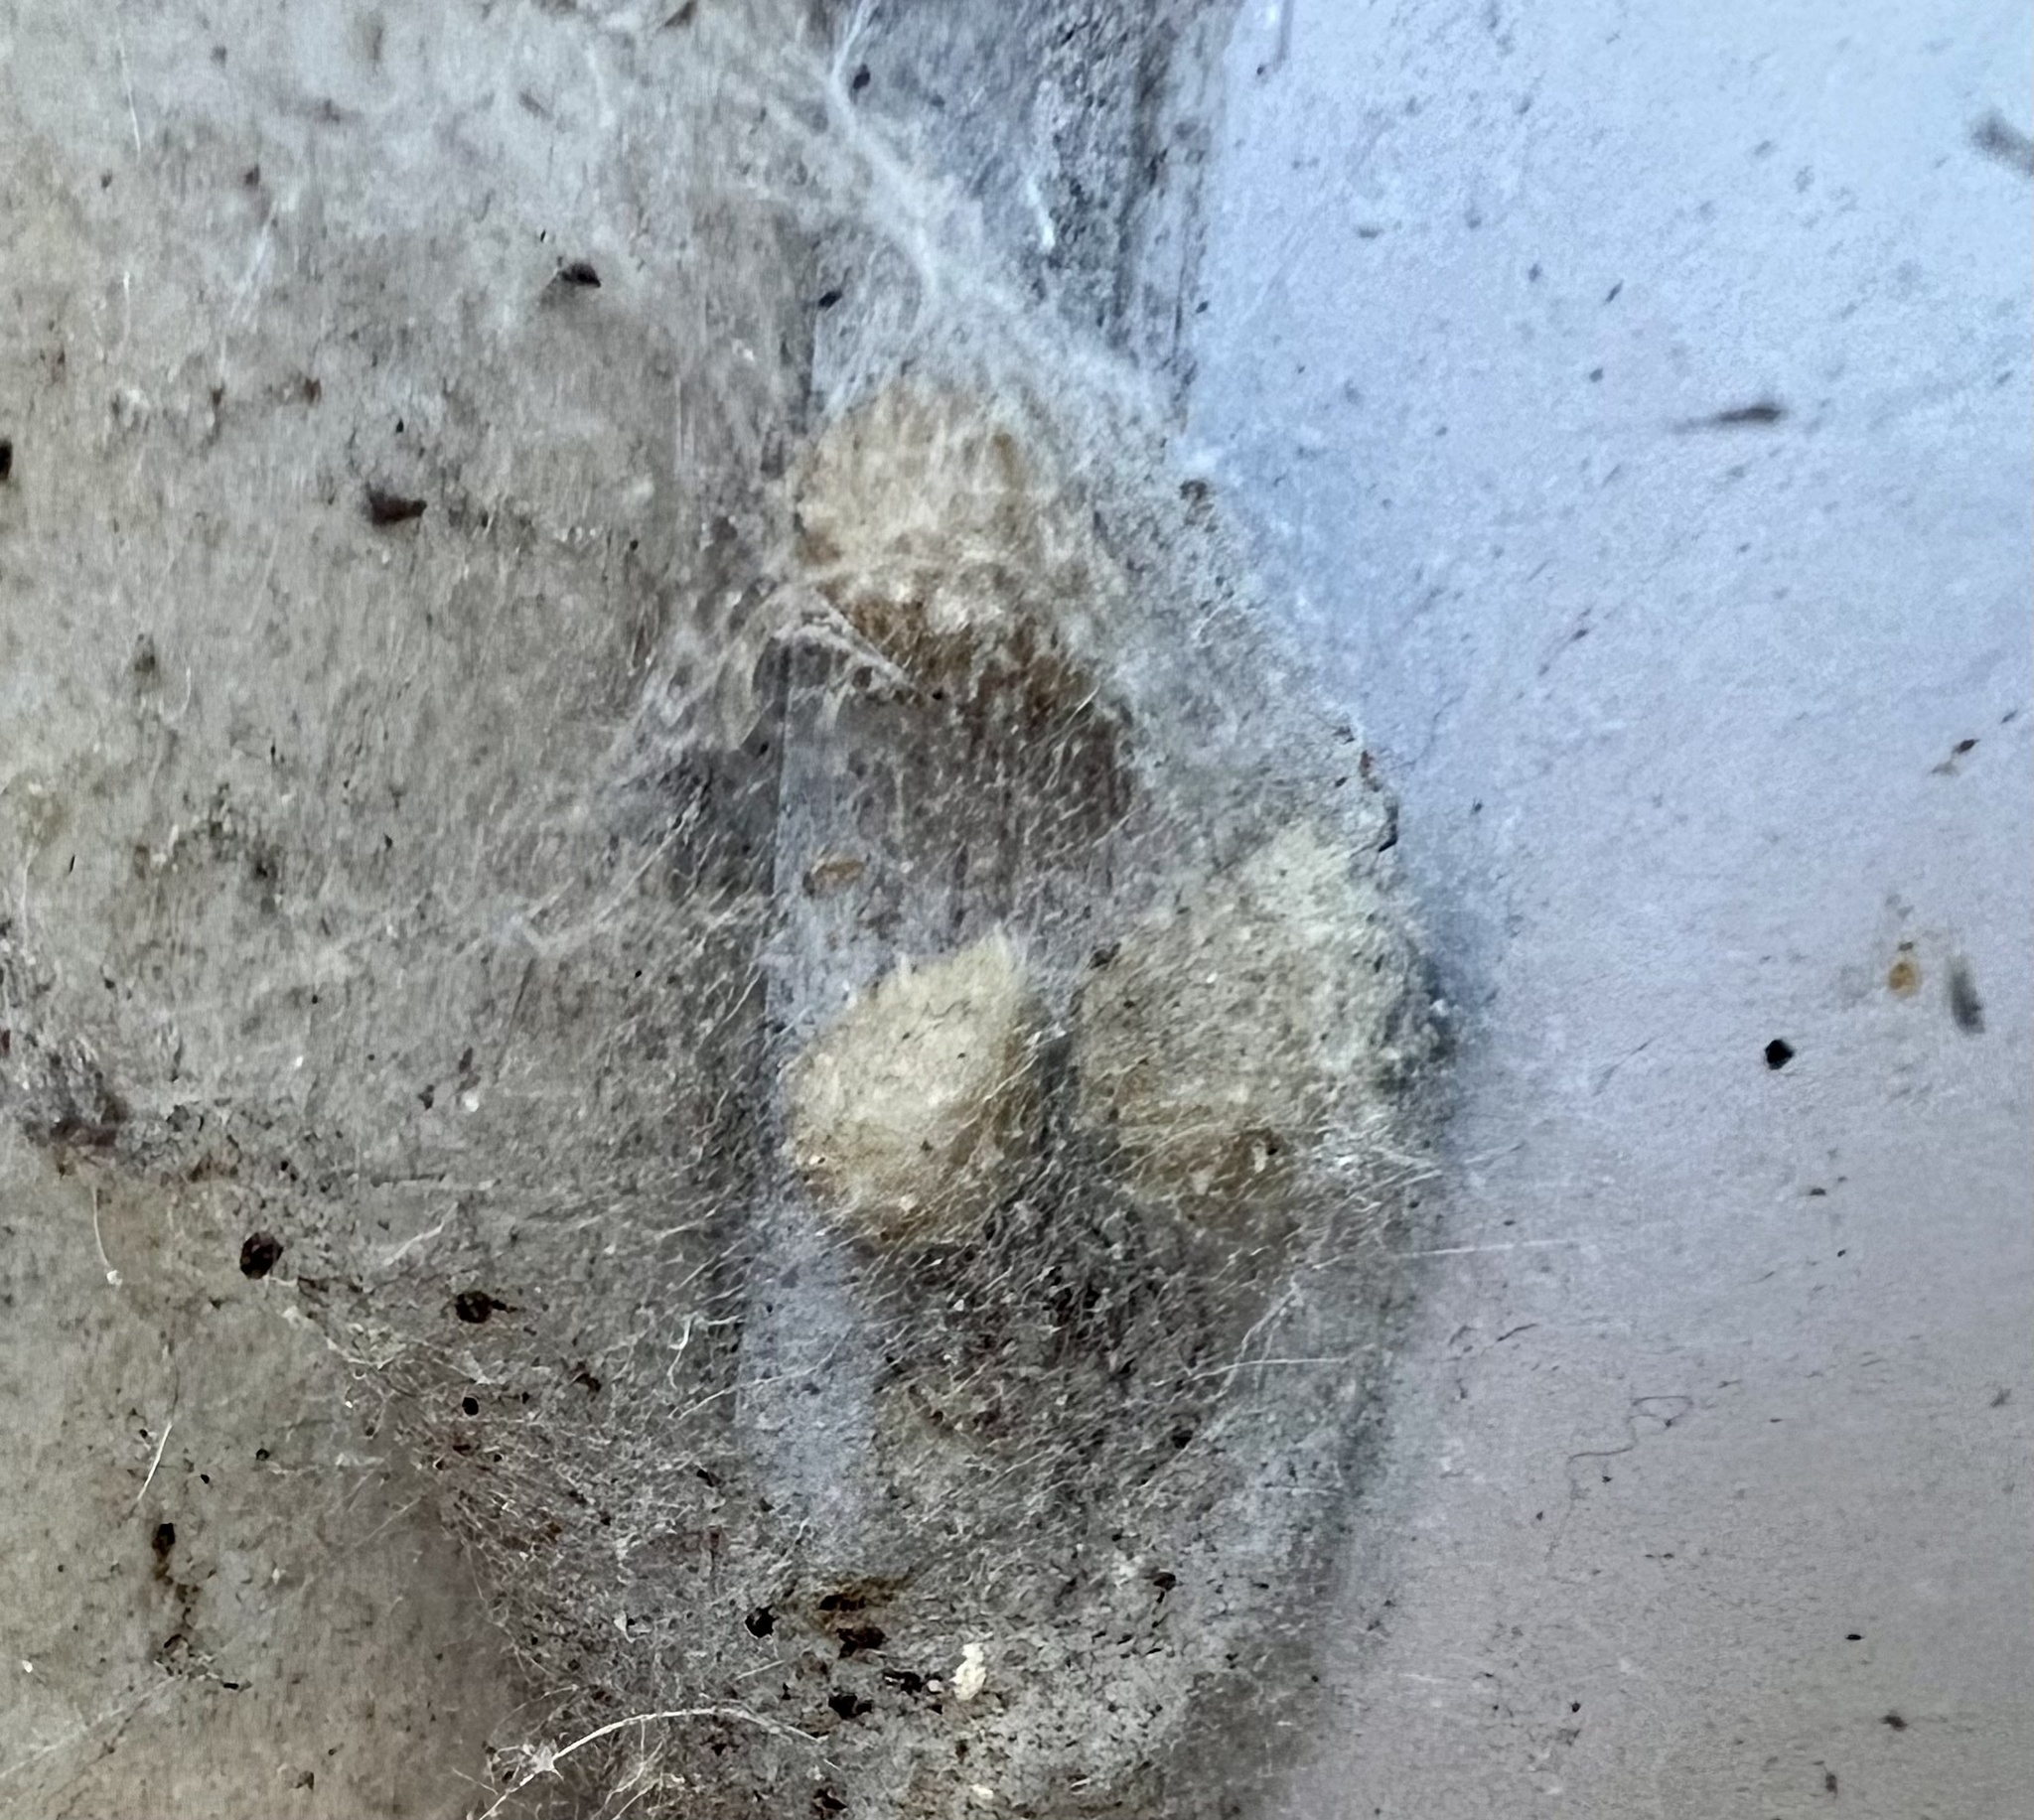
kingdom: Animalia
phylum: Arthropoda
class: Arachnida
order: Araneae
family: Theridiidae
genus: Latrodectus
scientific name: Latrodectus geometricus
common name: Brown widow spider
